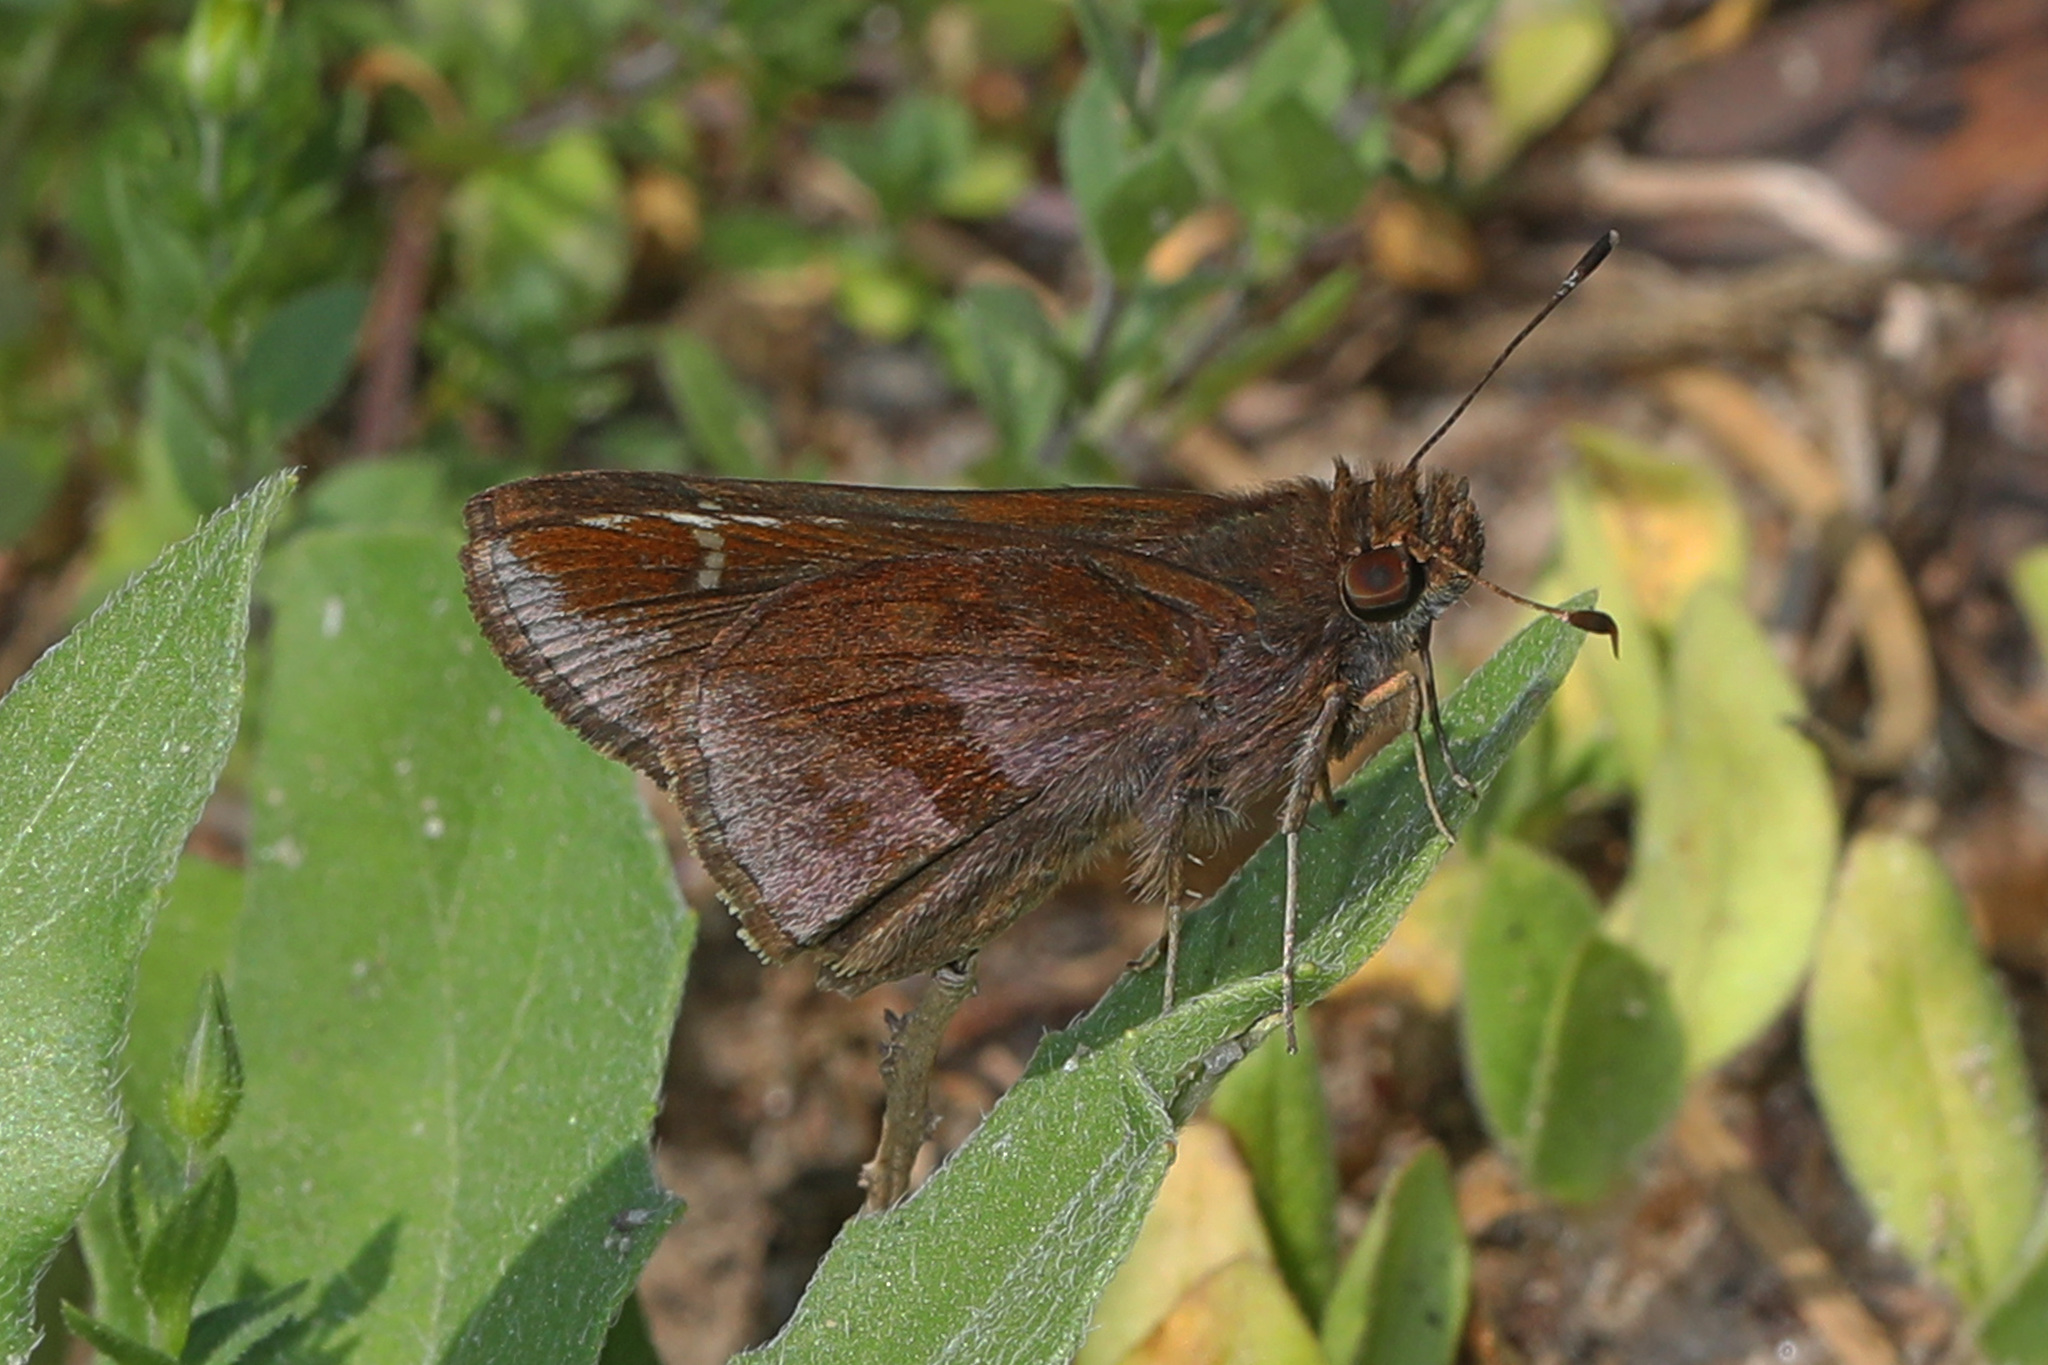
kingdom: Animalia
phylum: Arthropoda
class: Insecta
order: Lepidoptera
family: Hesperiidae
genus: Lerema
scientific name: Lerema accius
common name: Clouded skipper
